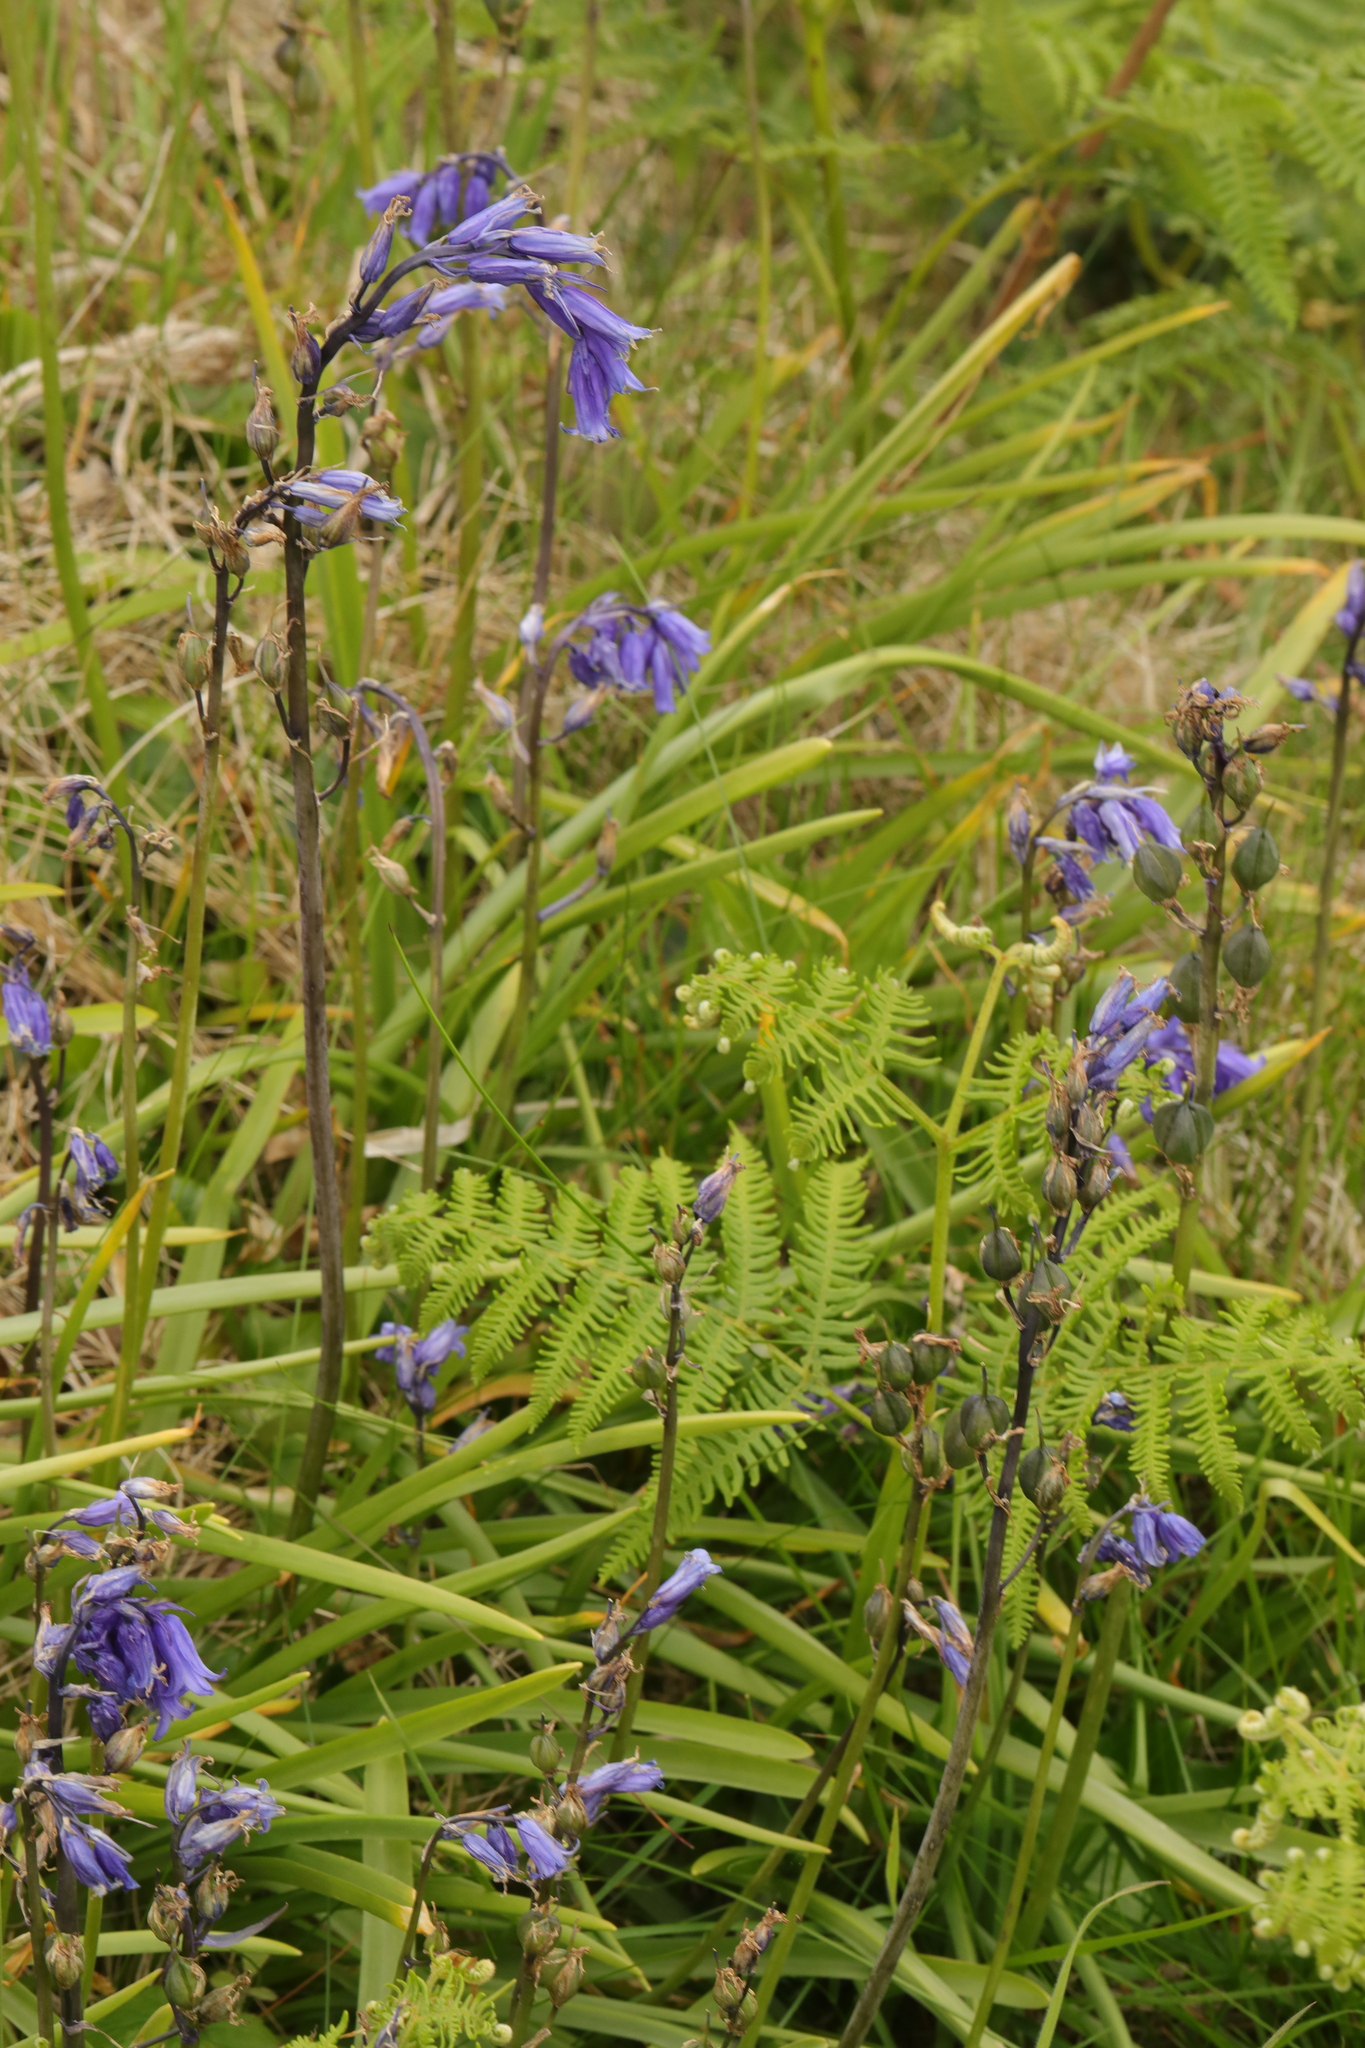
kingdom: Plantae
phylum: Tracheophyta
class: Liliopsida
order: Asparagales
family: Asparagaceae
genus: Hyacinthoides
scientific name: Hyacinthoides non-scripta
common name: Bluebell
